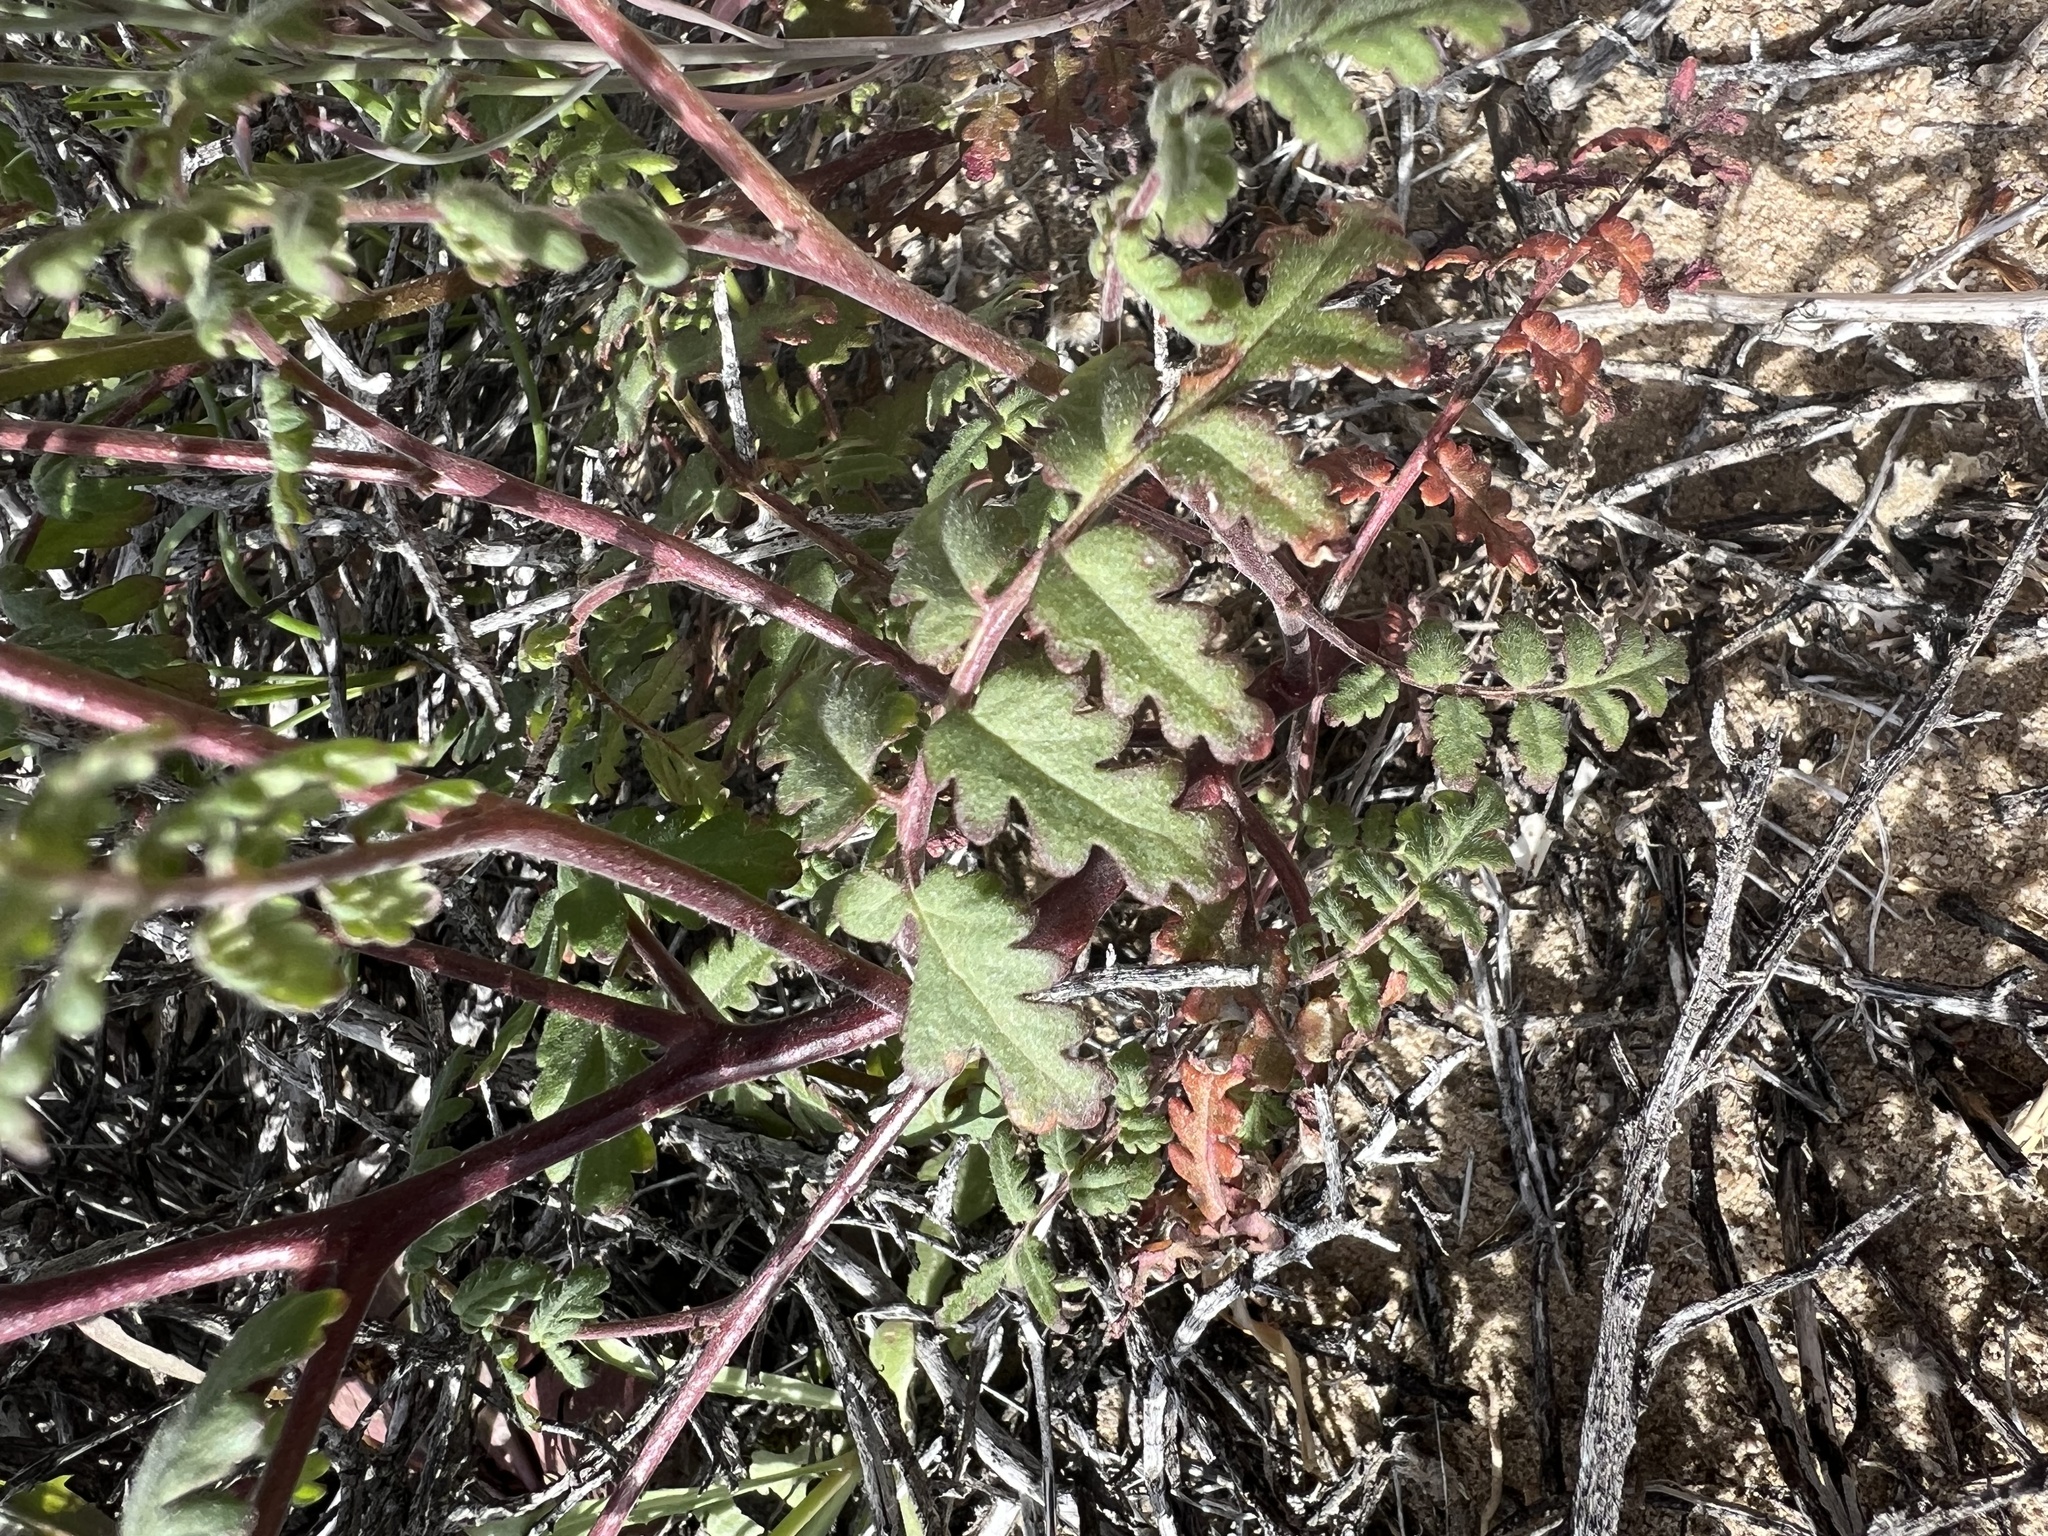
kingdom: Plantae
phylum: Tracheophyta
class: Magnoliopsida
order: Boraginales
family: Hydrophyllaceae
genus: Phacelia
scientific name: Phacelia distans
